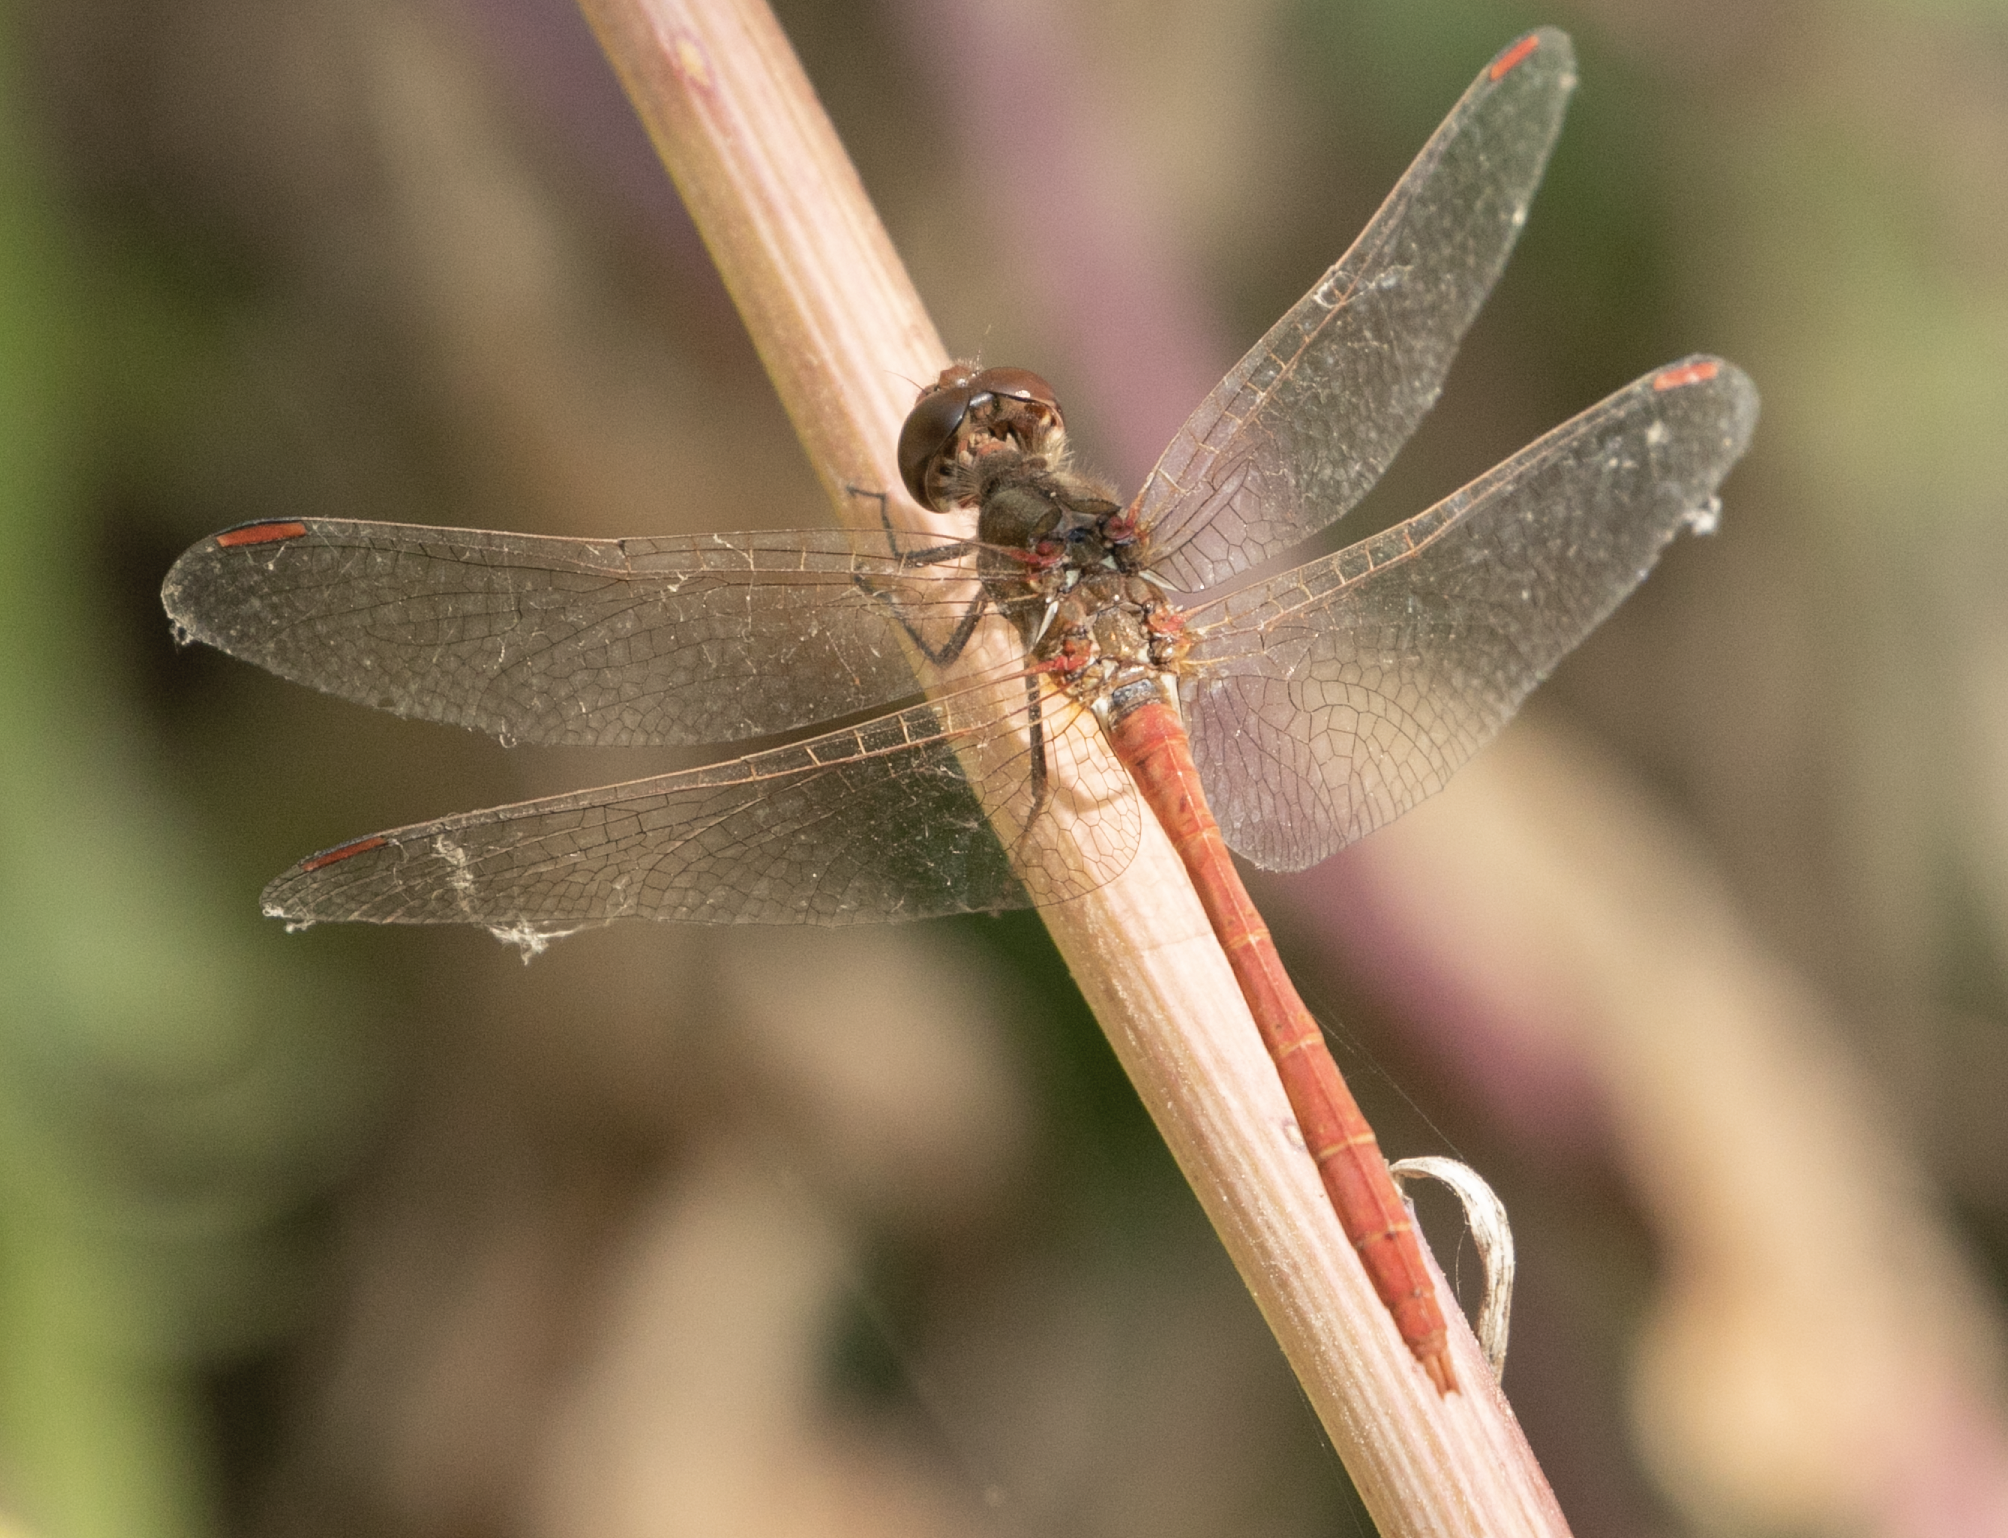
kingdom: Animalia
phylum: Arthropoda
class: Insecta
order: Odonata
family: Libellulidae
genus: Sympetrum
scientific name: Sympetrum meridionale
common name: Southern darter
